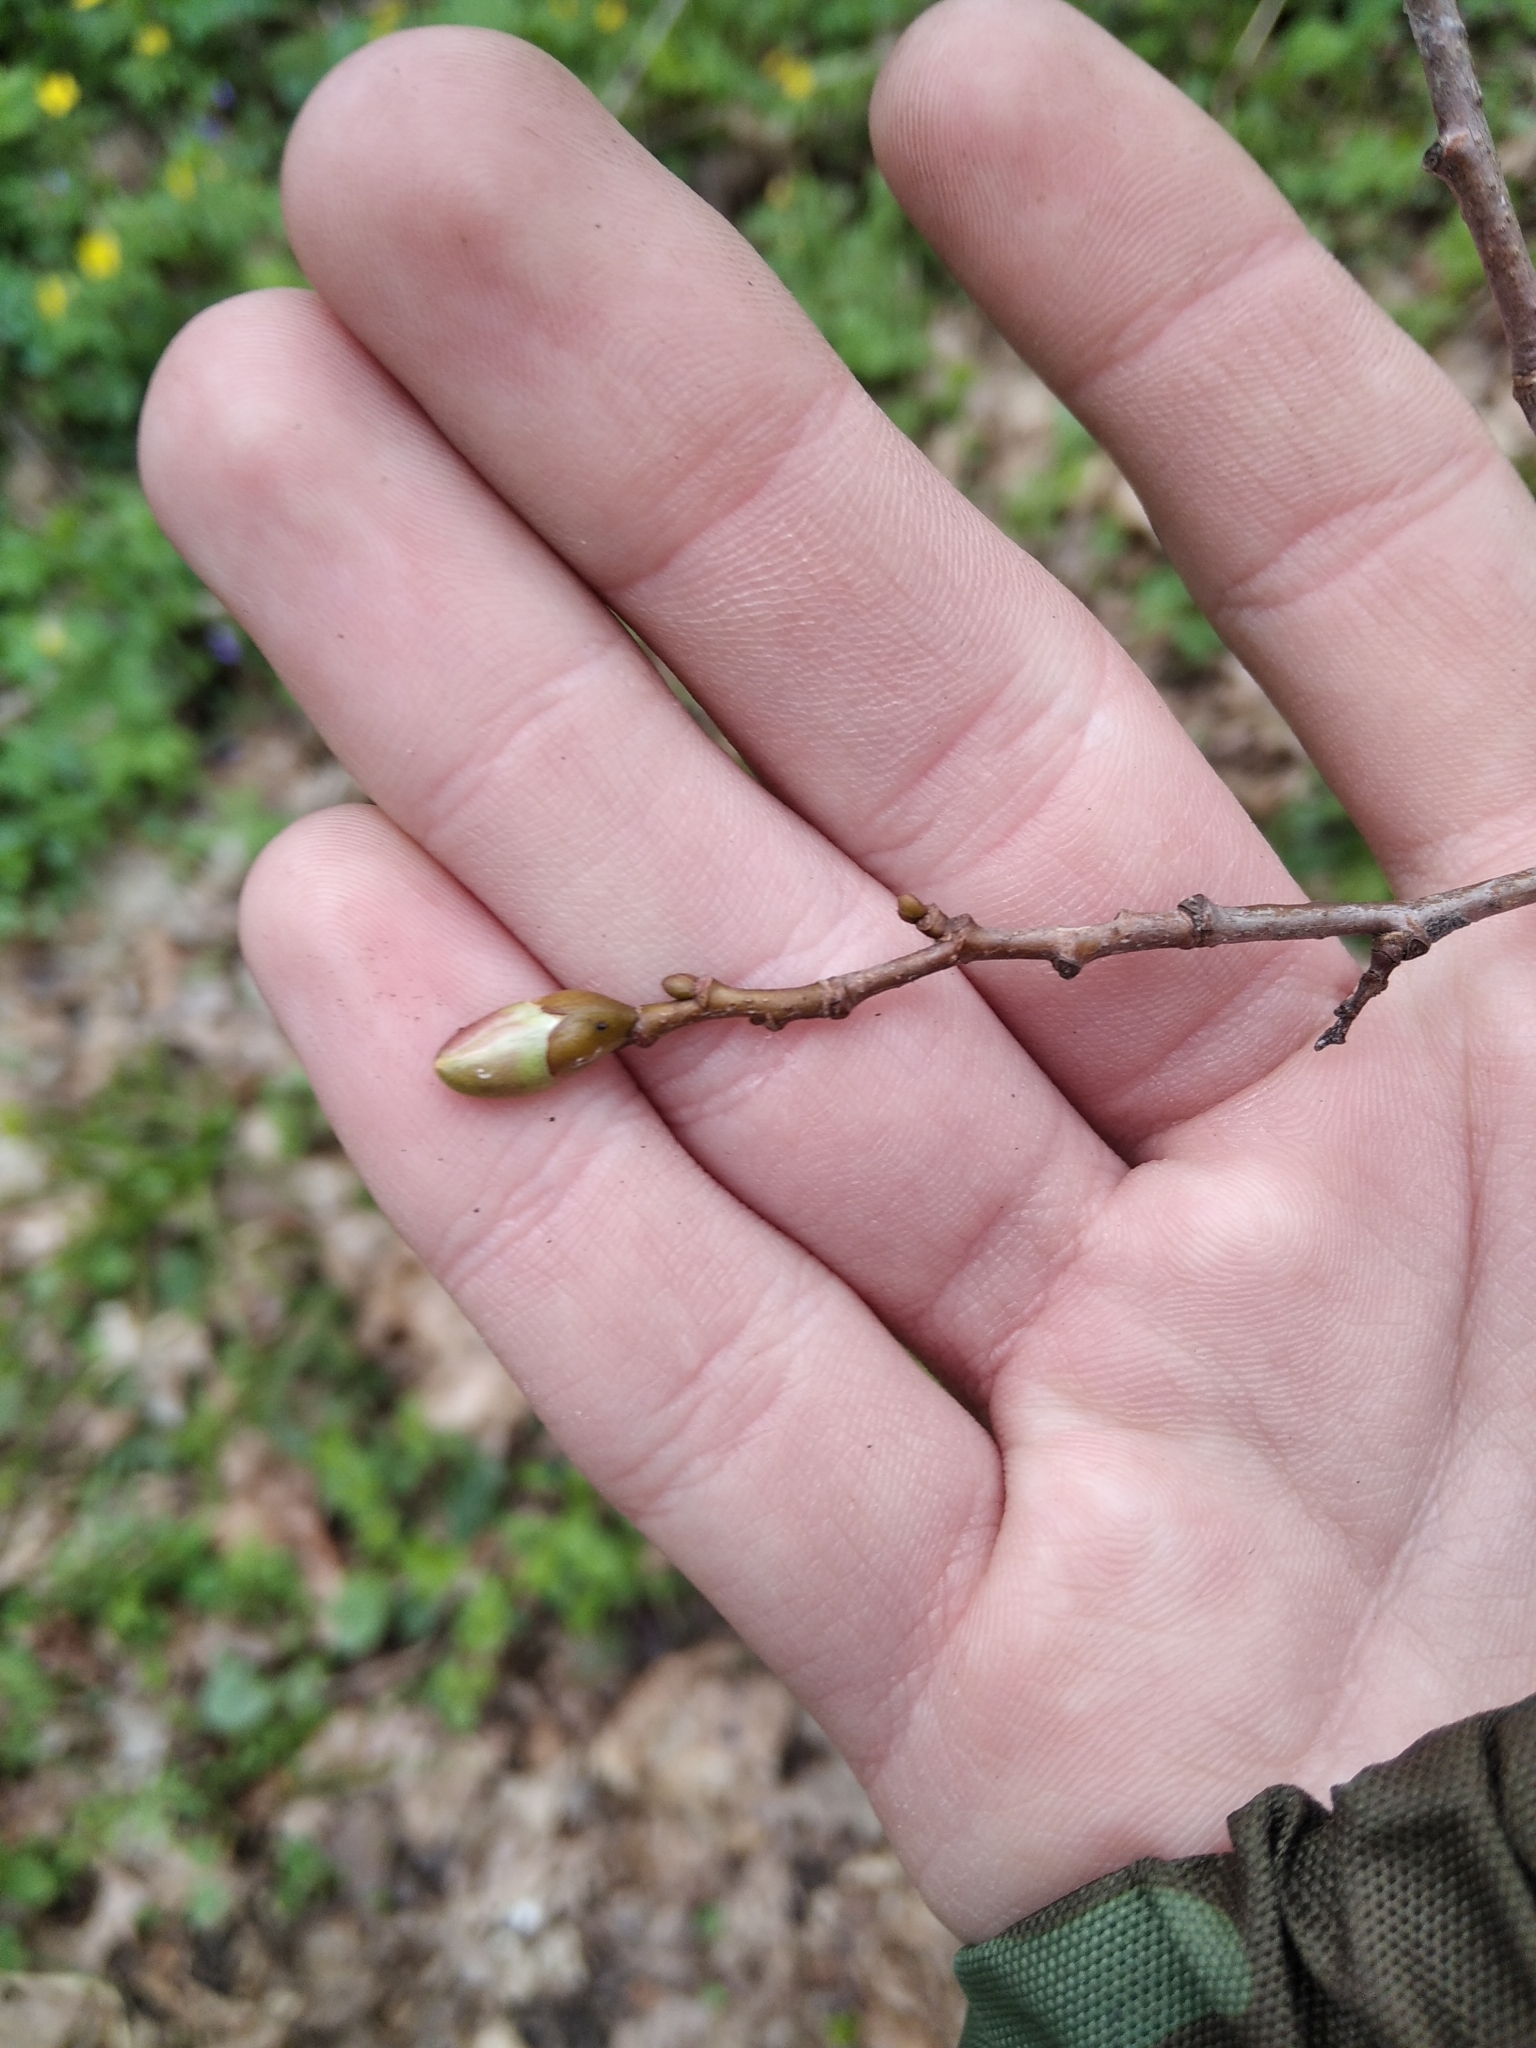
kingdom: Plantae
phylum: Tracheophyta
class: Magnoliopsida
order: Malvales
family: Malvaceae
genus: Tilia
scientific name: Tilia cordata
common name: Small-leaved lime
